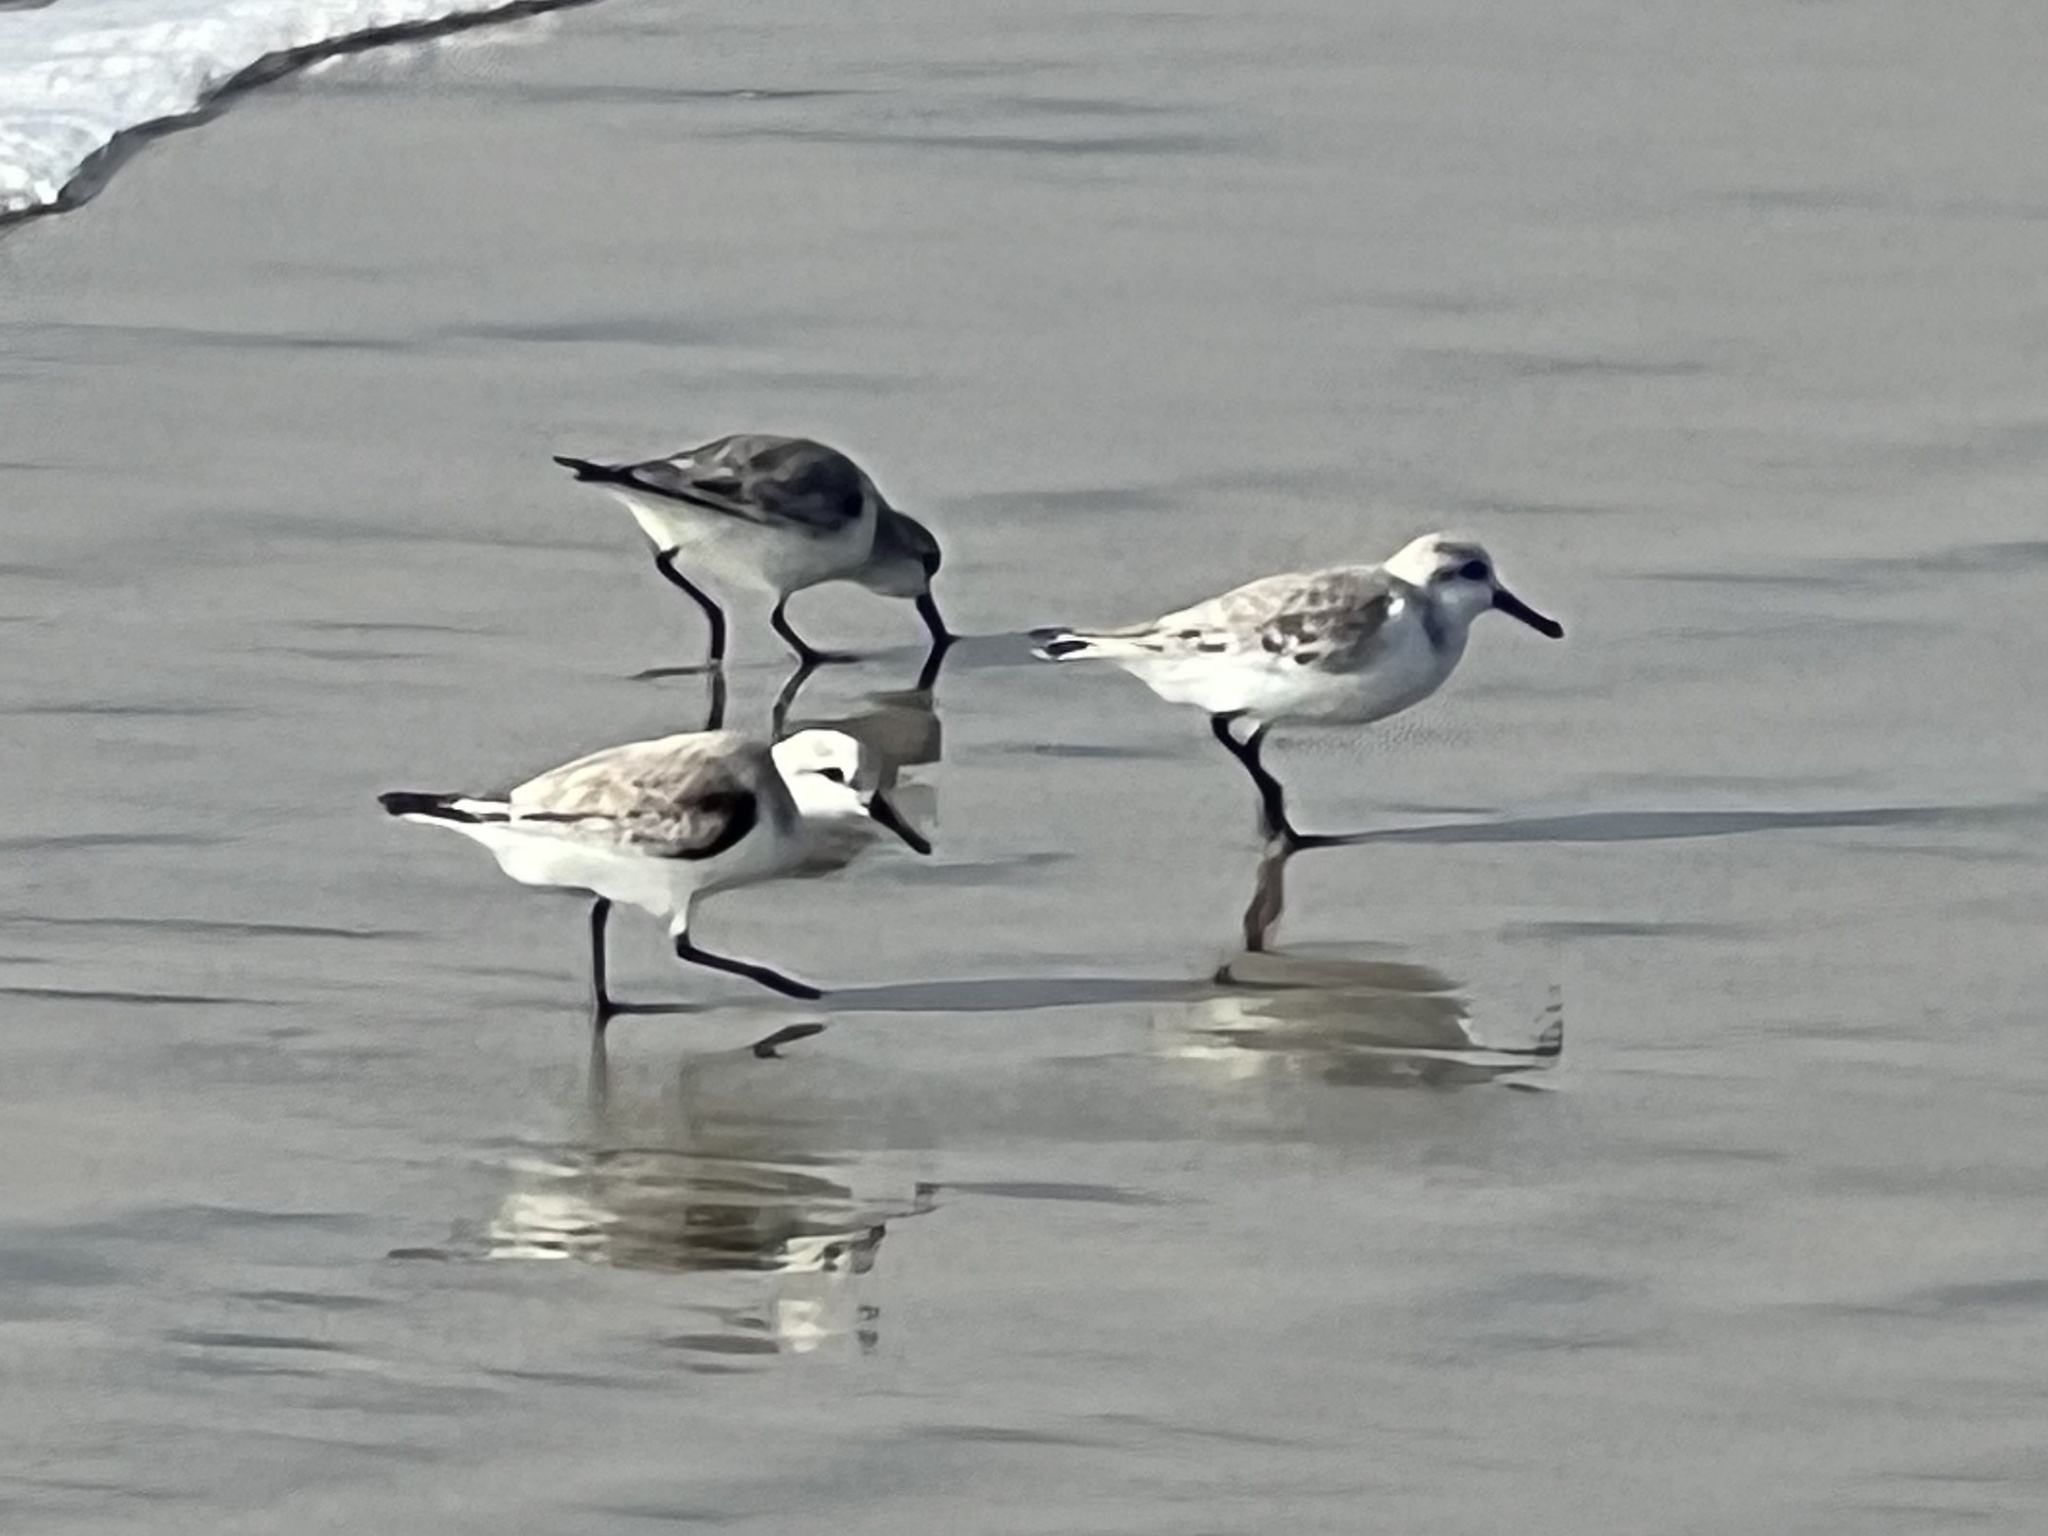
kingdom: Animalia
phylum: Chordata
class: Aves
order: Charadriiformes
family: Scolopacidae
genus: Calidris
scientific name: Calidris alba
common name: Sanderling
